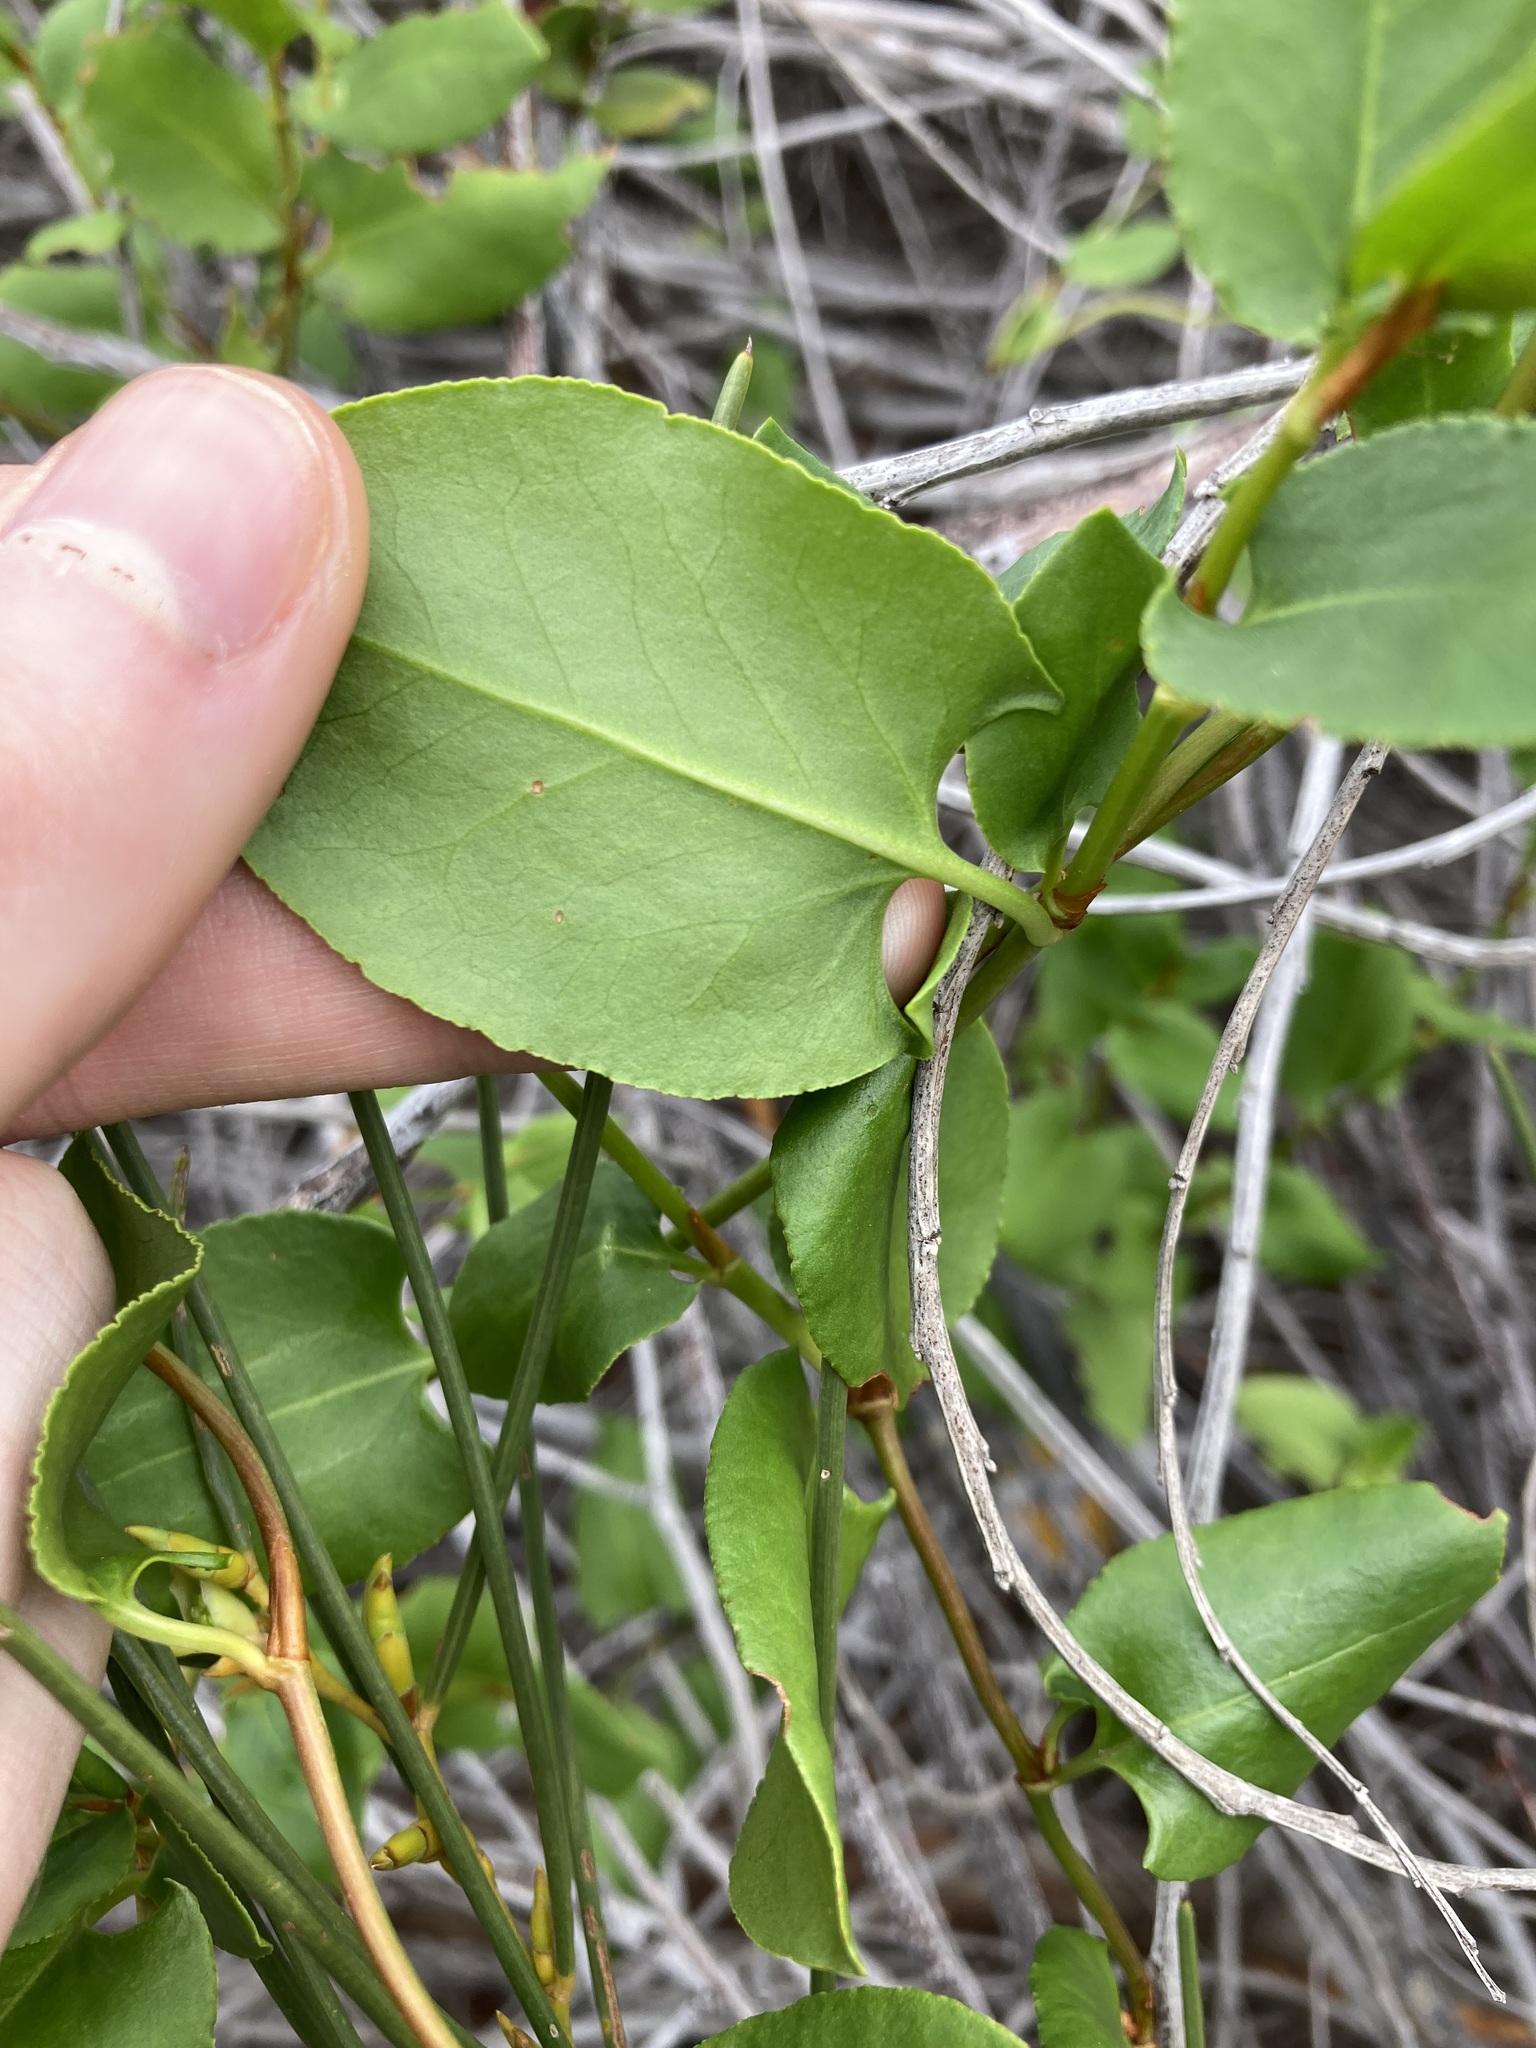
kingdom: Plantae
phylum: Tracheophyta
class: Magnoliopsida
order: Caryophyllales
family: Polygonaceae
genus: Muehlenbeckia
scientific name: Muehlenbeckia adpressa
